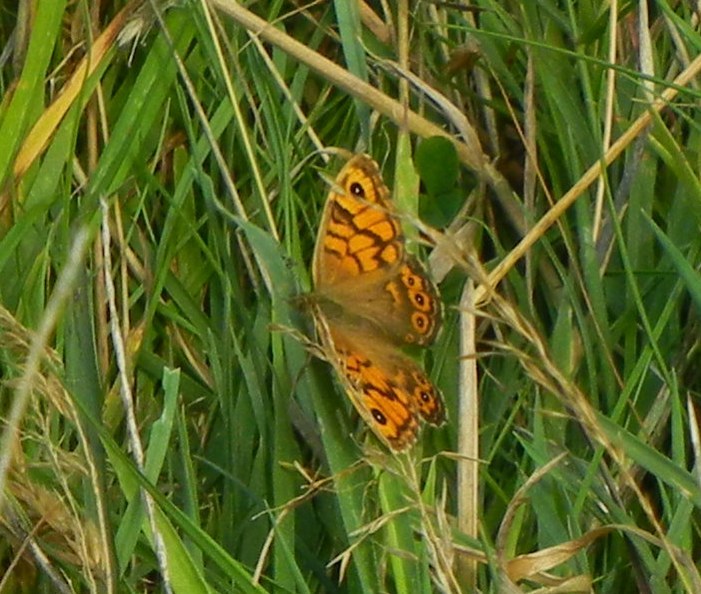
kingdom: Animalia
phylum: Arthropoda
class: Insecta
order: Lepidoptera
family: Nymphalidae
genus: Pararge
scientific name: Pararge Lasiommata megera
